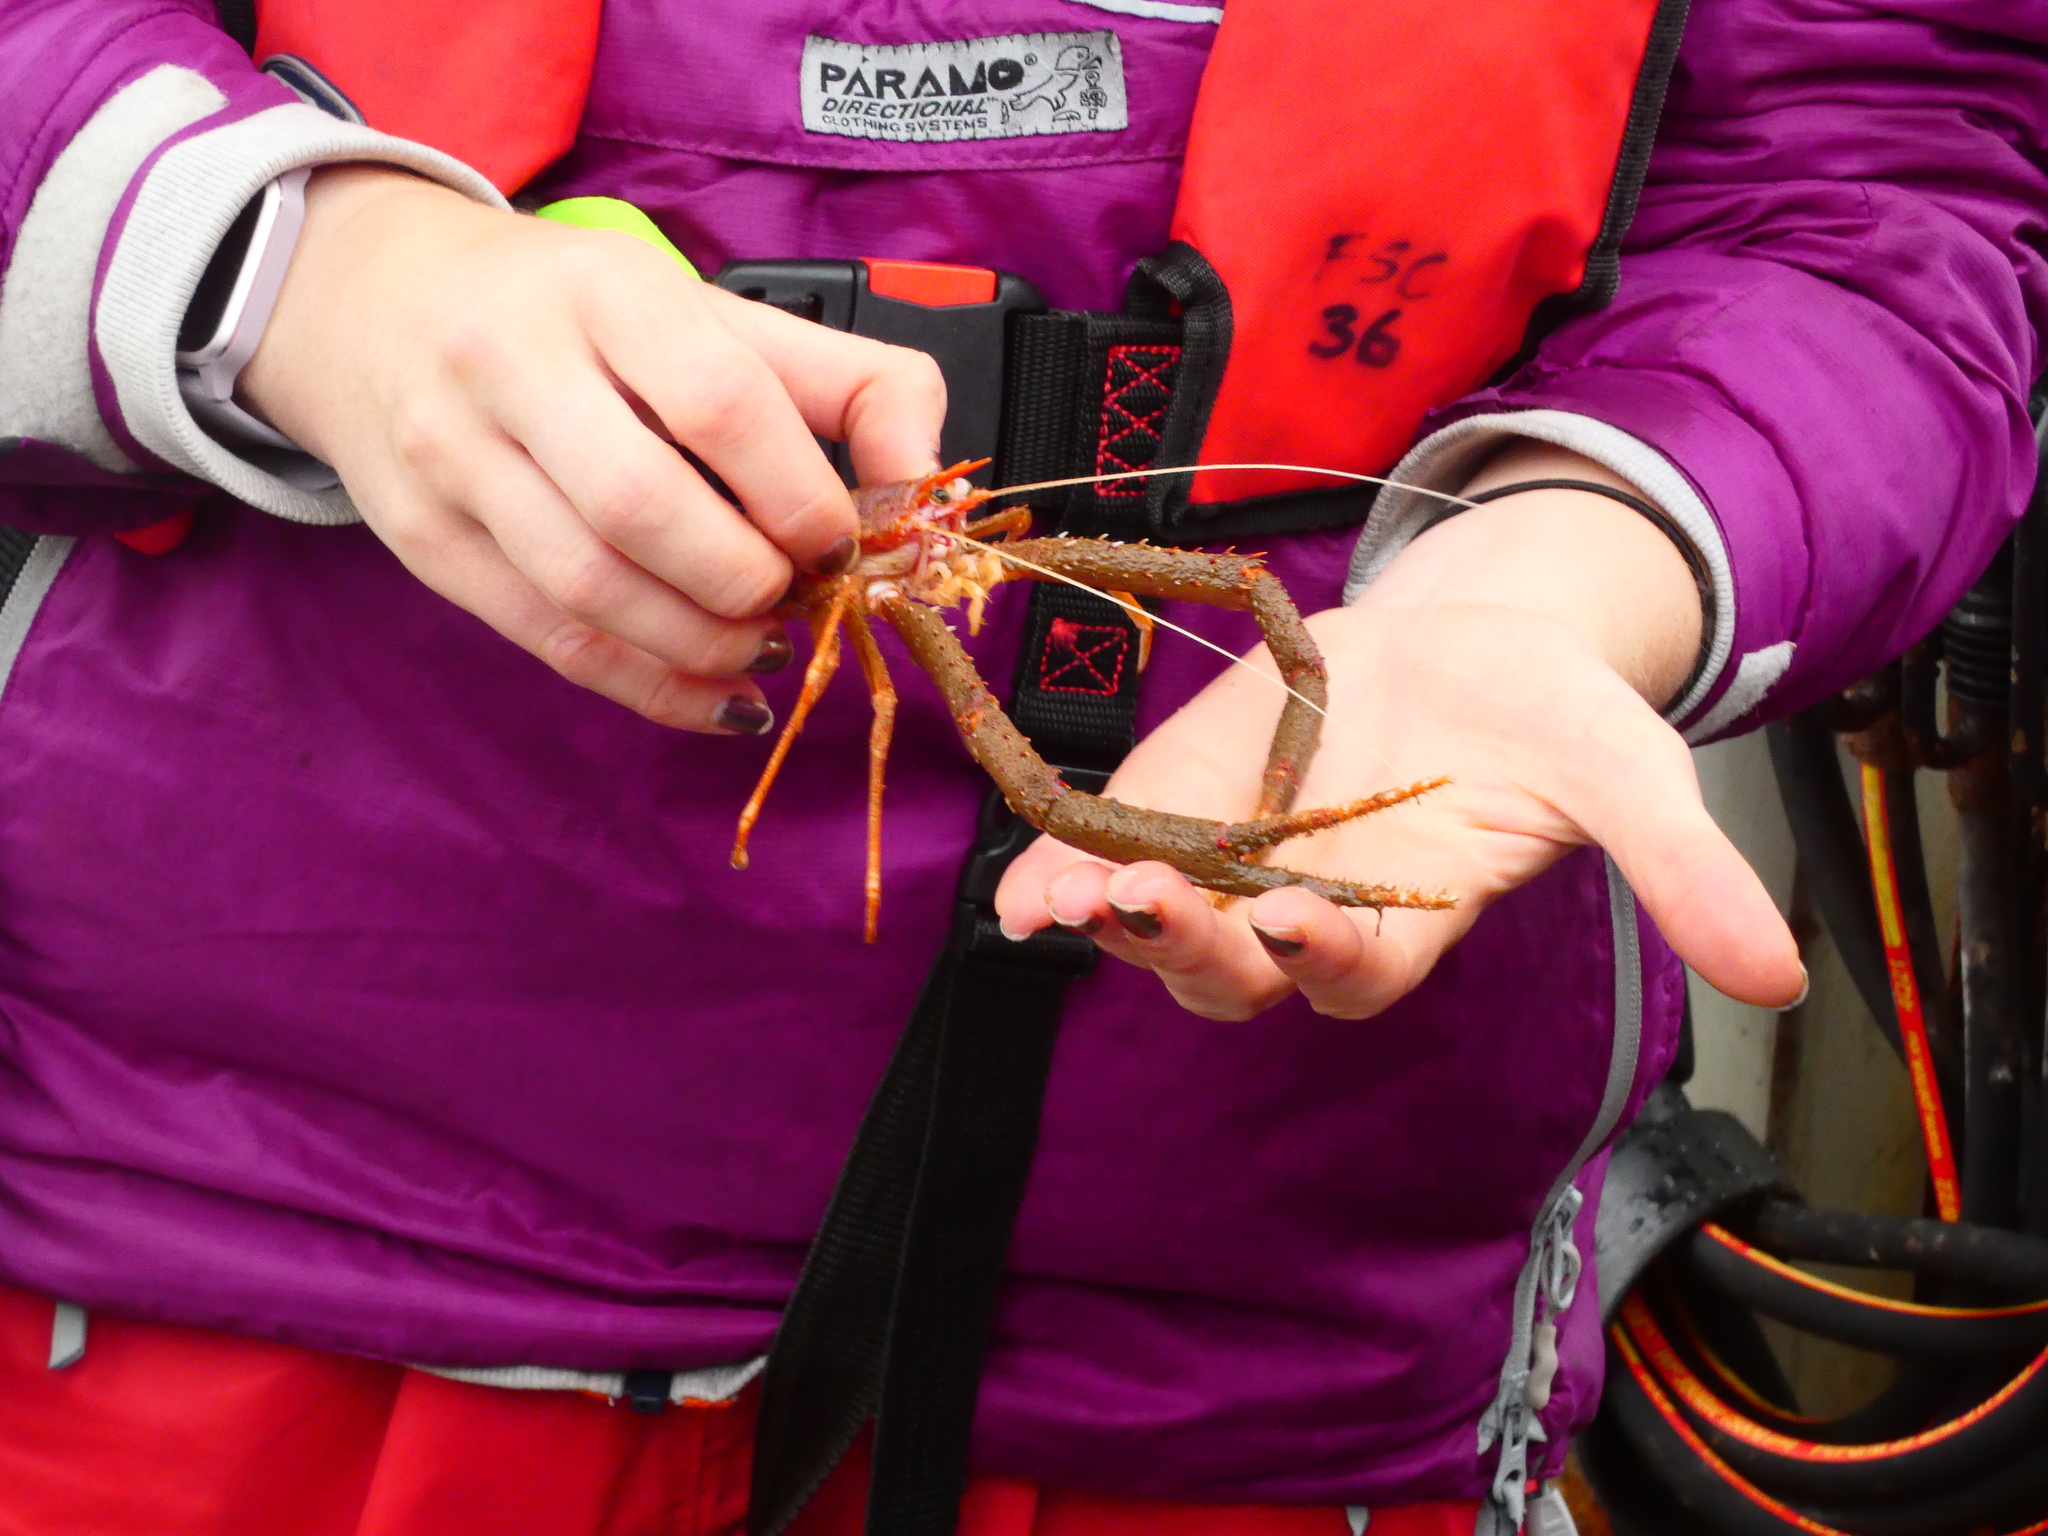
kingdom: Animalia
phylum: Arthropoda
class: Malacostraca
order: Decapoda
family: Munididae
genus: Munida
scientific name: Munida rugosa
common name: Rugose squat lobster
